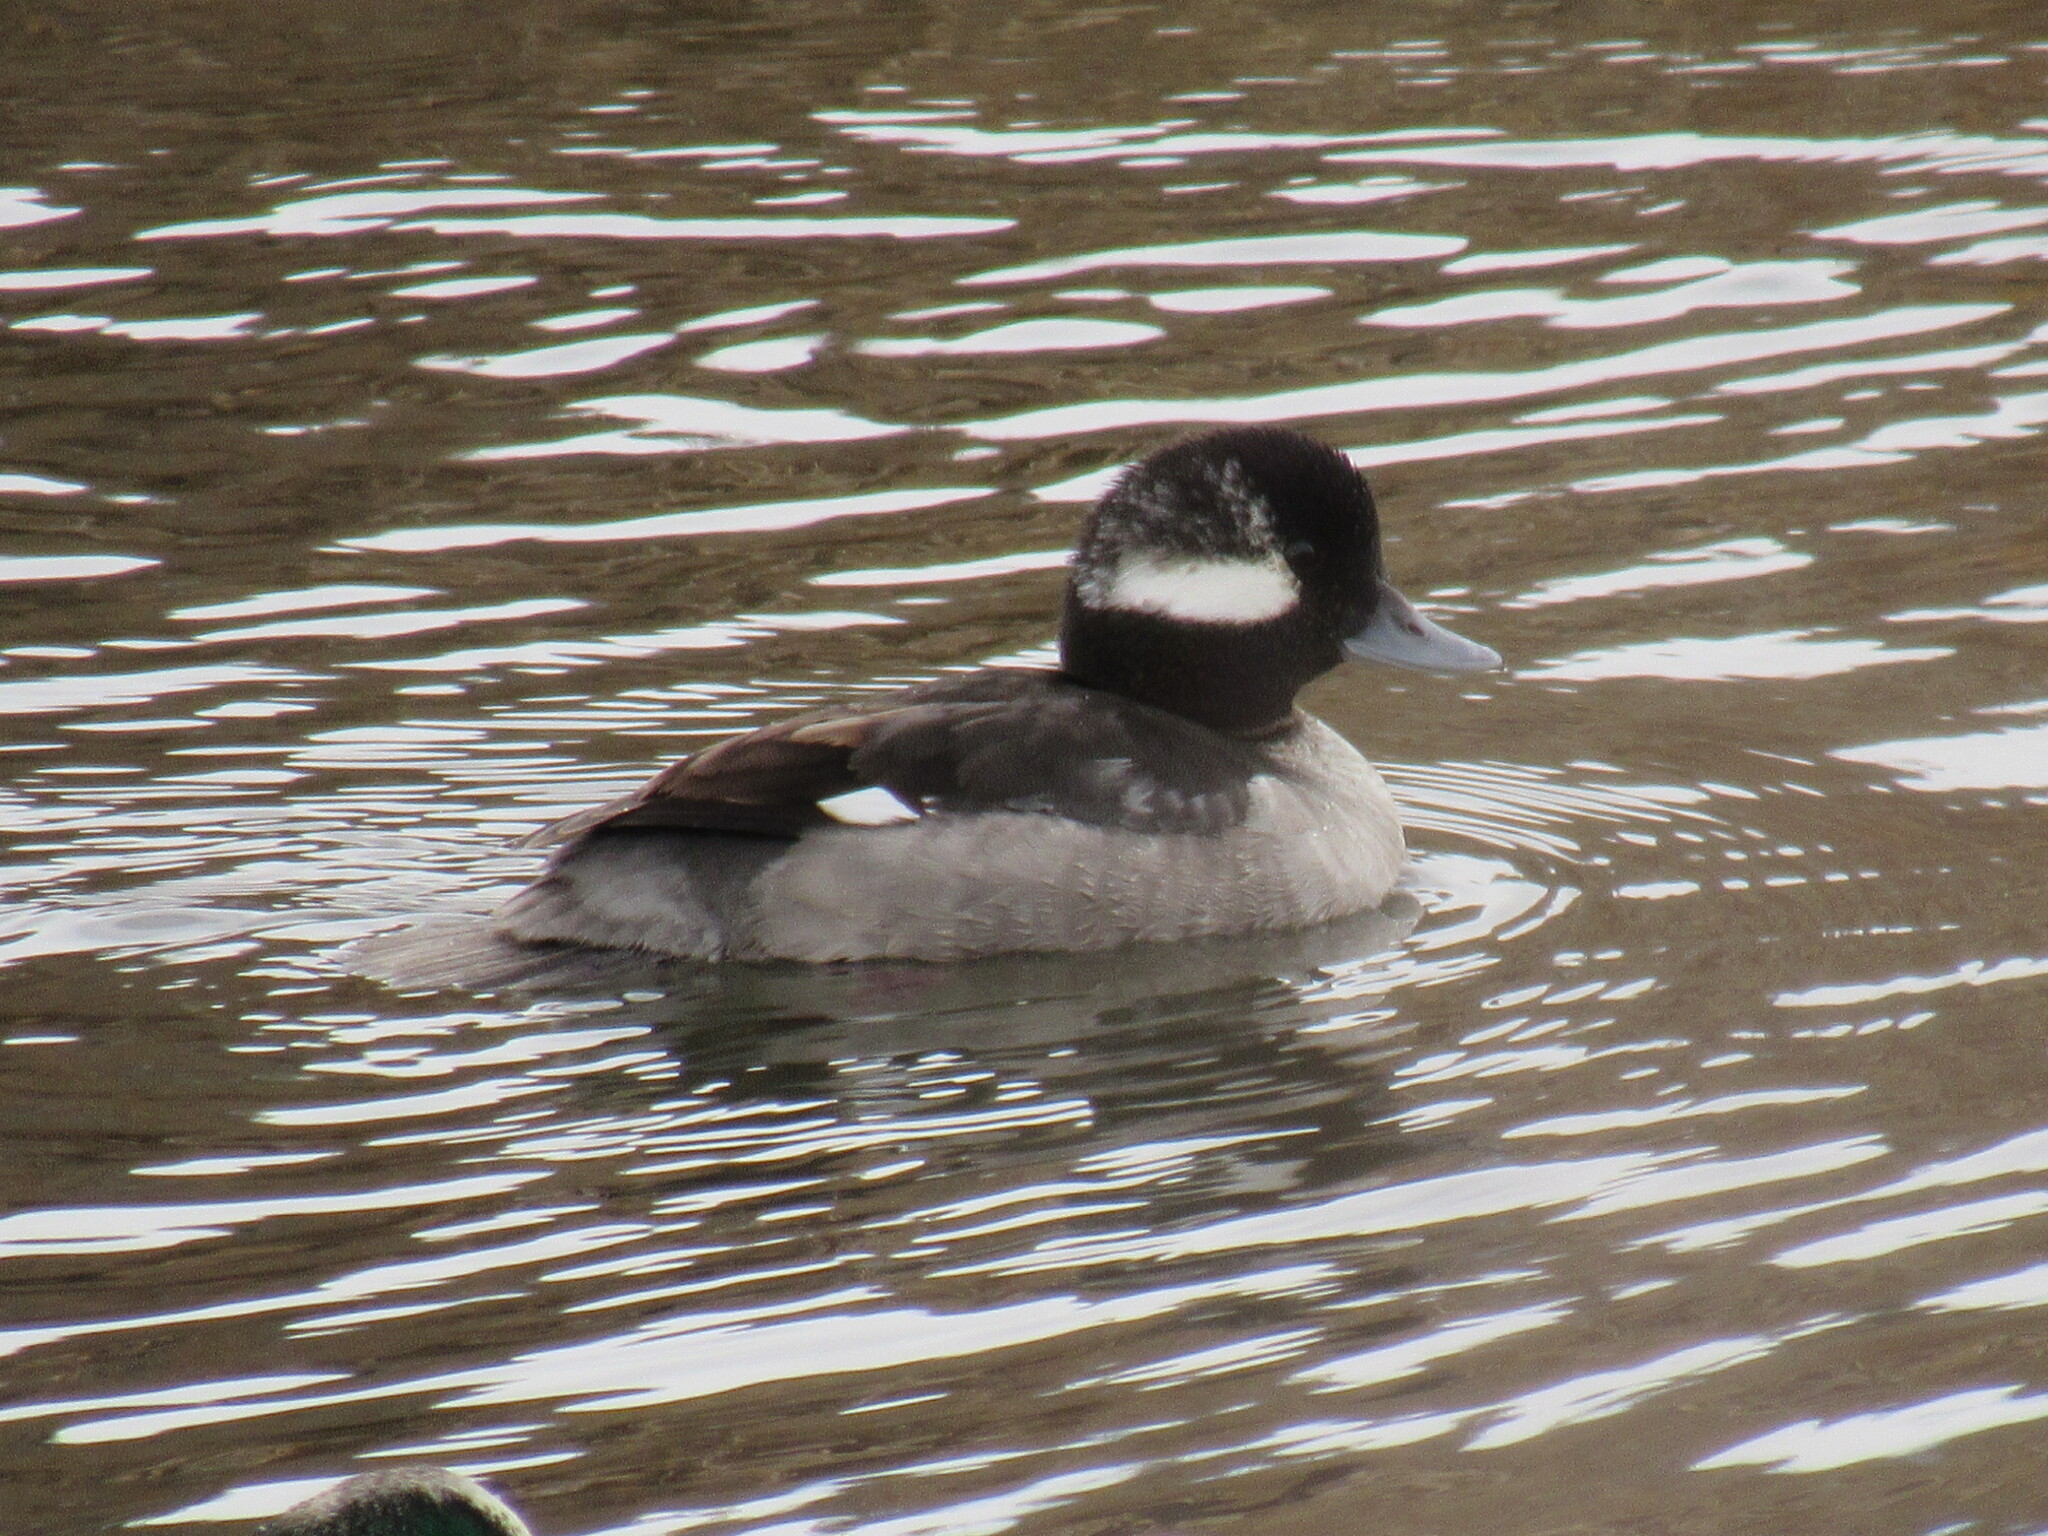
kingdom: Animalia
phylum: Chordata
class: Aves
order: Anseriformes
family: Anatidae
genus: Bucephala
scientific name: Bucephala albeola
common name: Bufflehead
